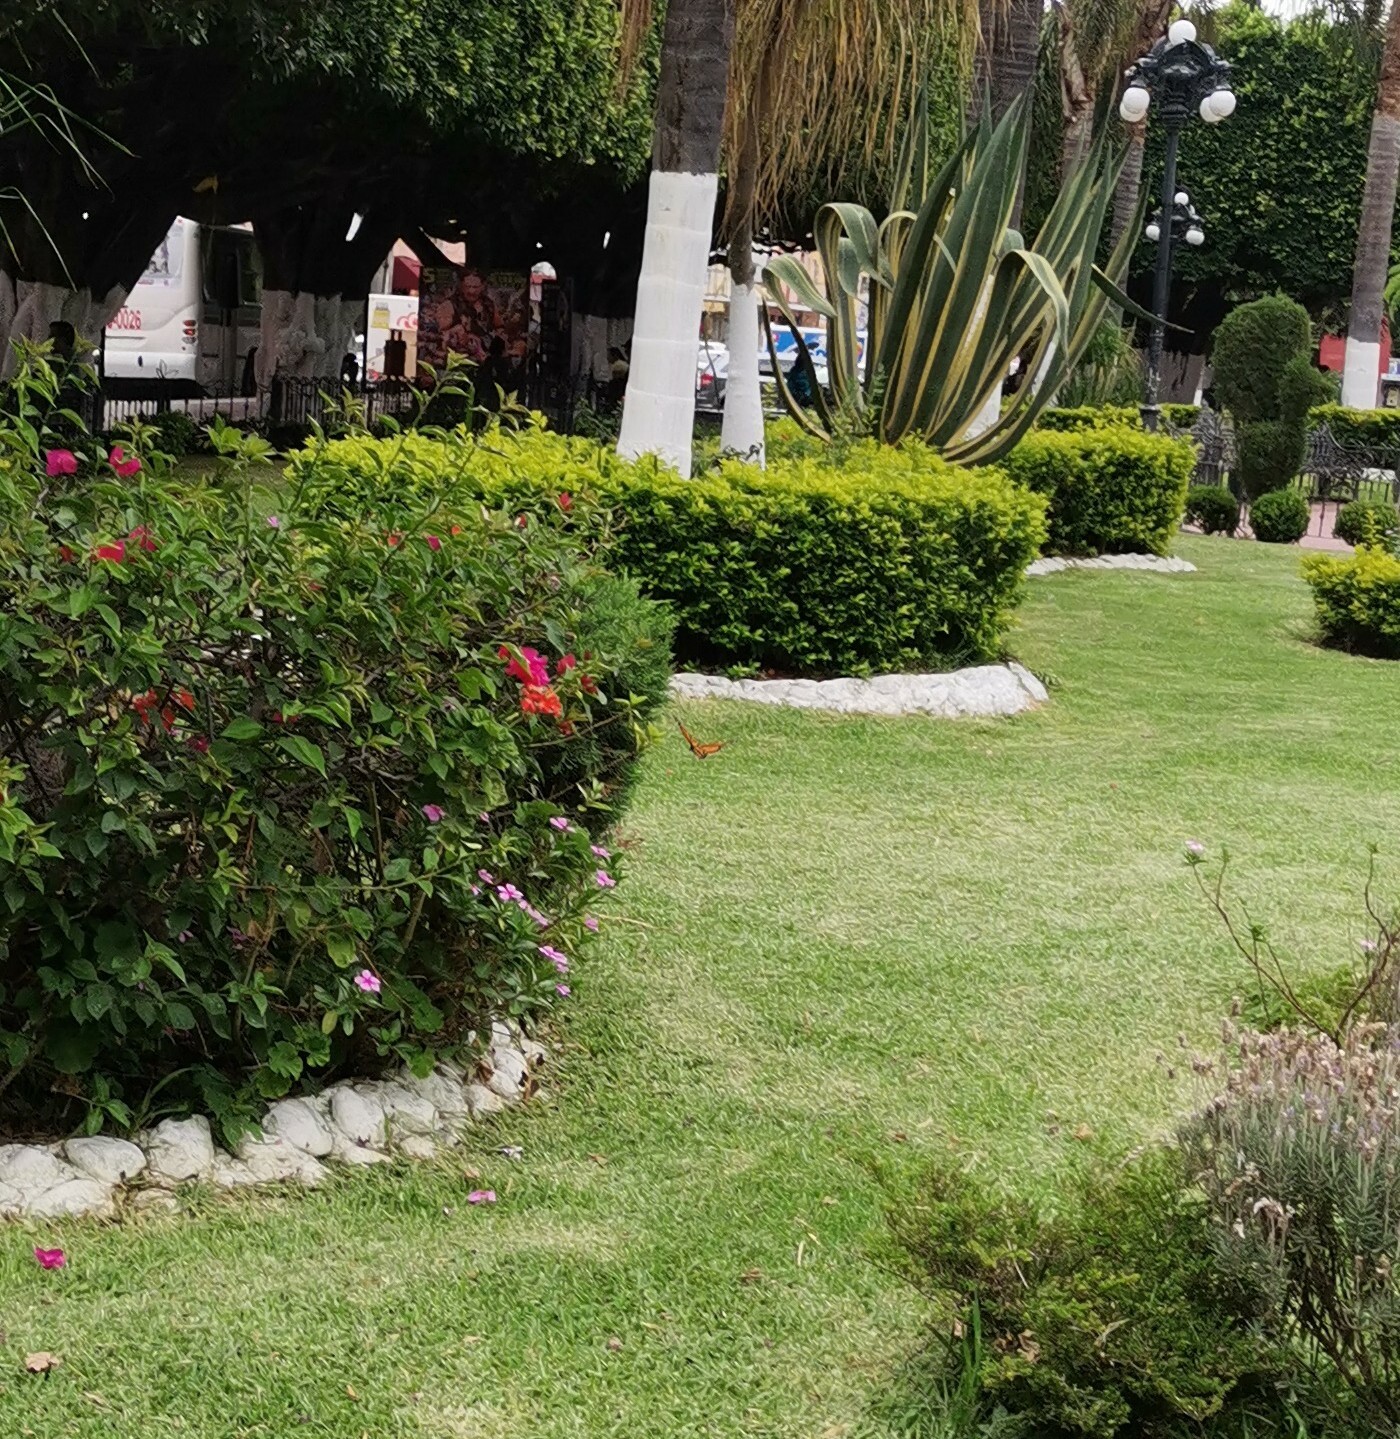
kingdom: Animalia
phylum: Arthropoda
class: Insecta
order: Lepidoptera
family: Nymphalidae
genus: Danaus
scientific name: Danaus plexippus
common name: Monarch
